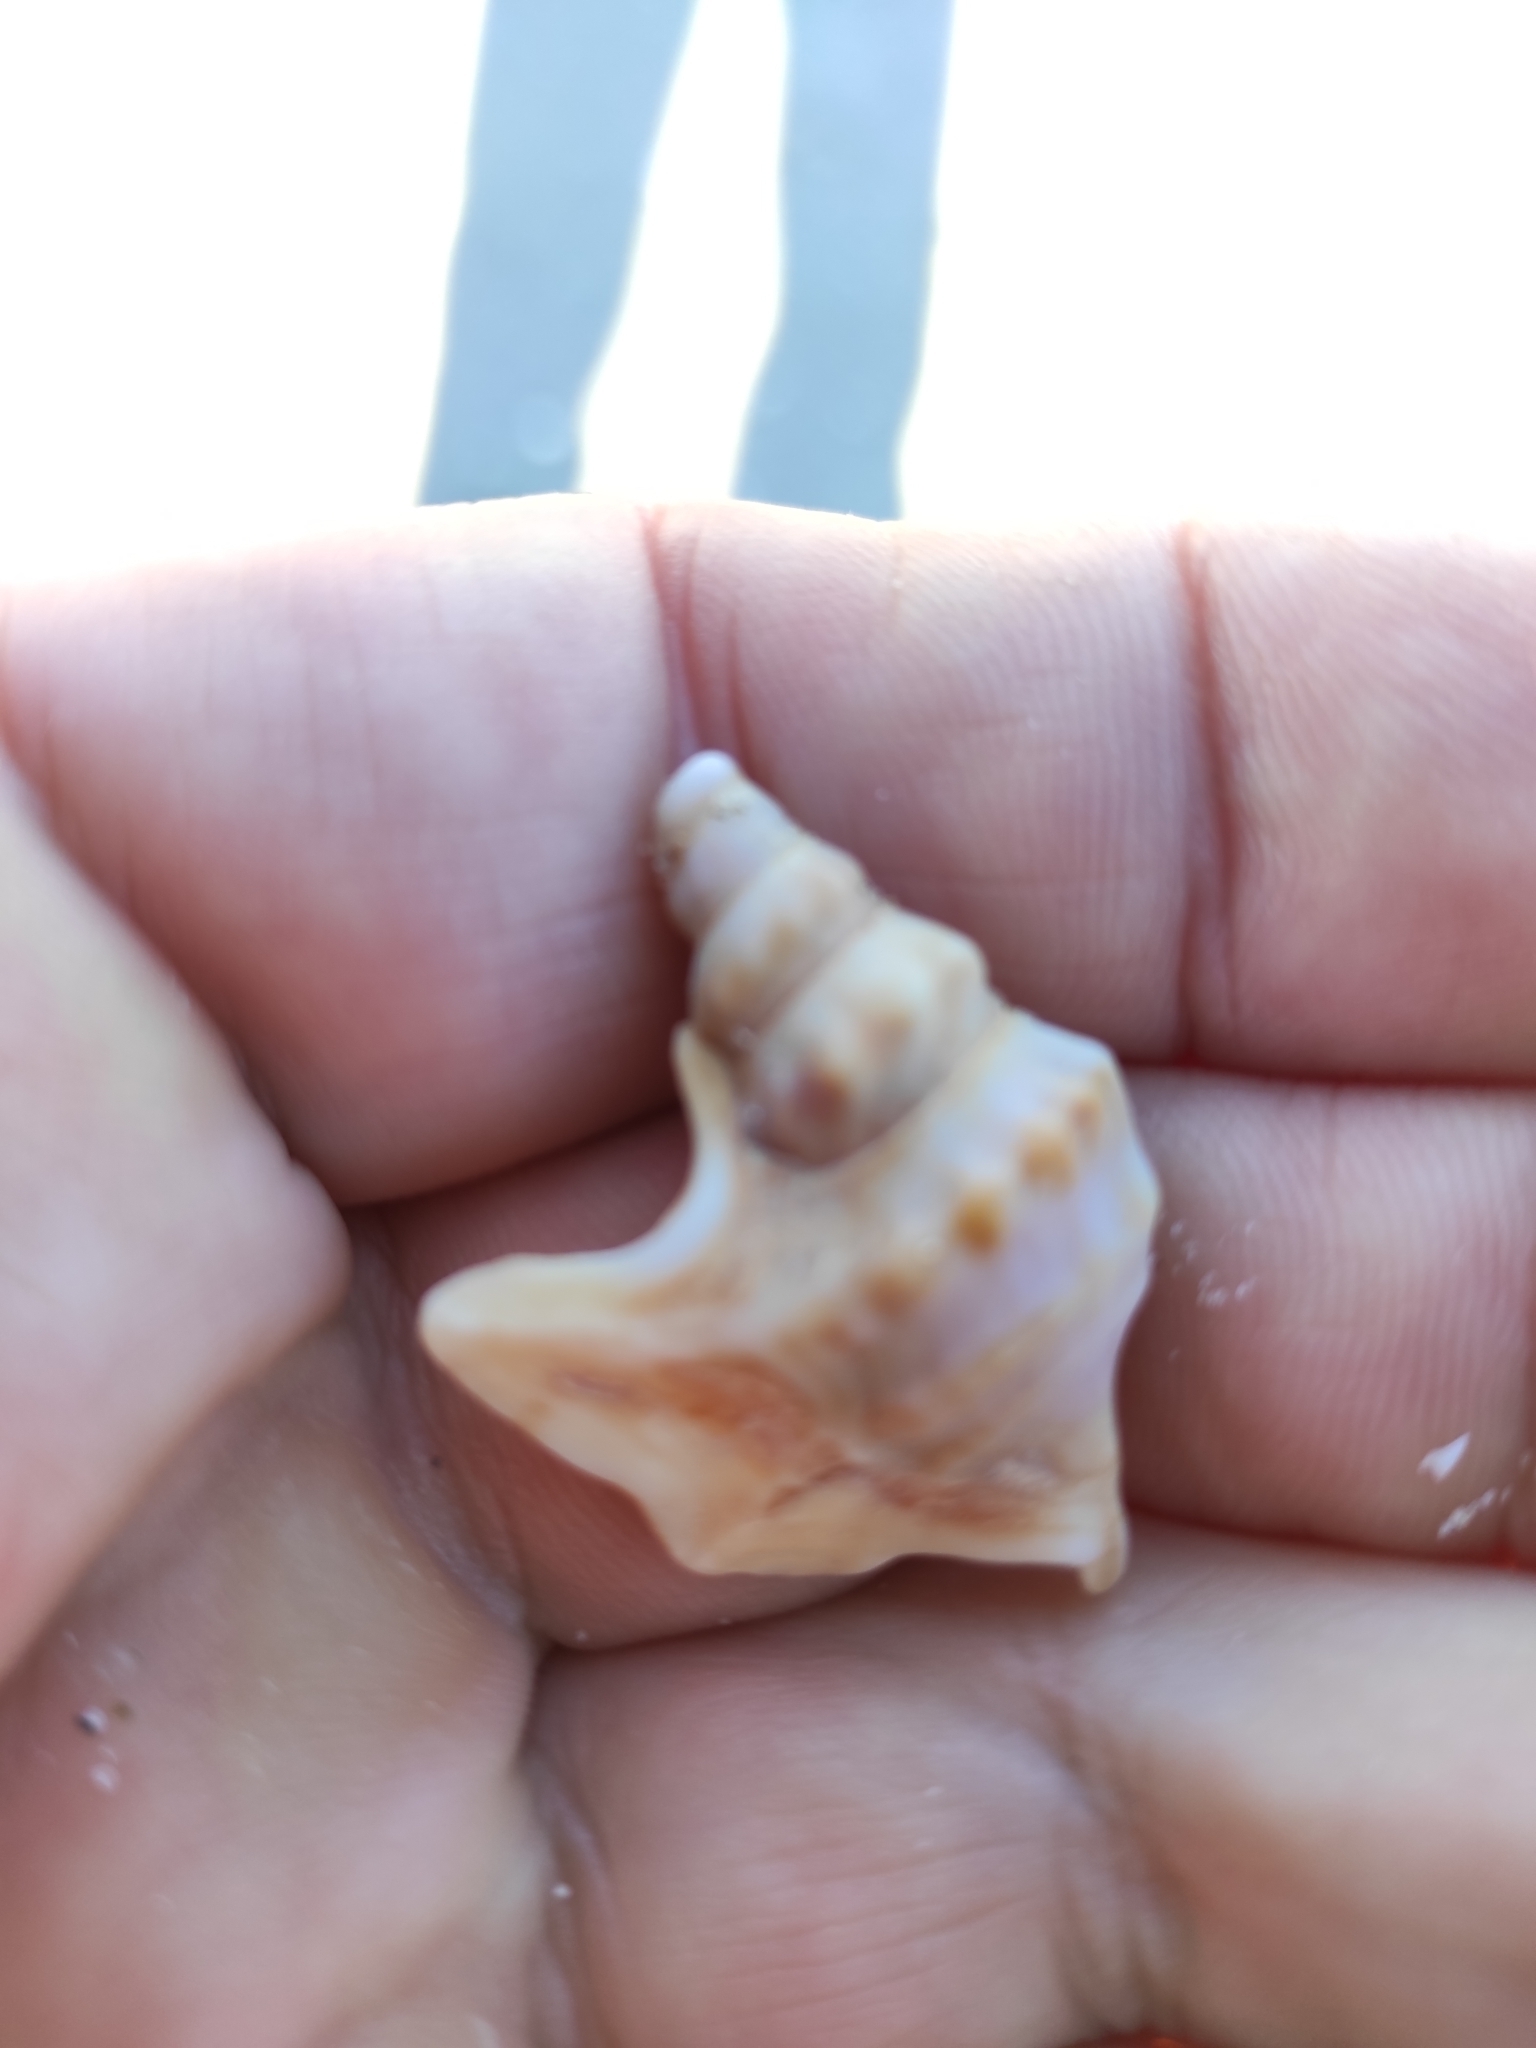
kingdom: Animalia
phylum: Mollusca
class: Gastropoda
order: Littorinimorpha
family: Aporrhaidae
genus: Aporrhais
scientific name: Aporrhais pespelecani
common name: Common pelican’s foot
